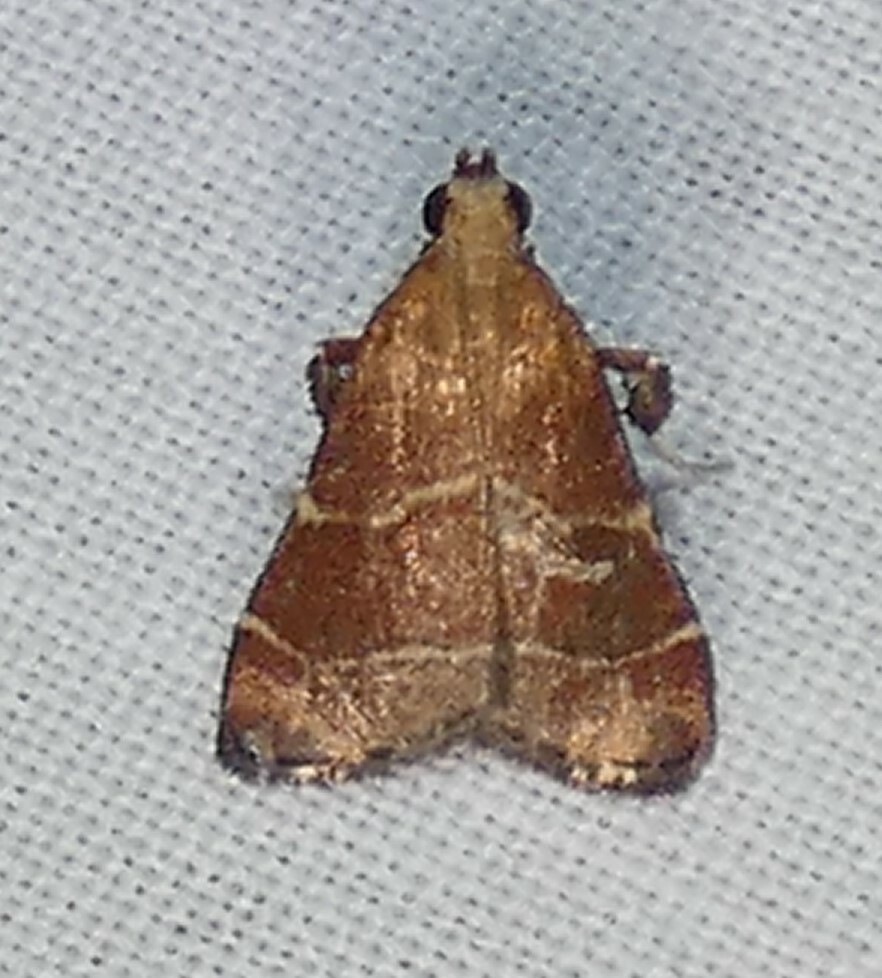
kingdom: Animalia
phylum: Arthropoda
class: Insecta
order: Lepidoptera
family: Pyralidae
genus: Arta
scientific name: Arta statalis
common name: Posturing arta moth
